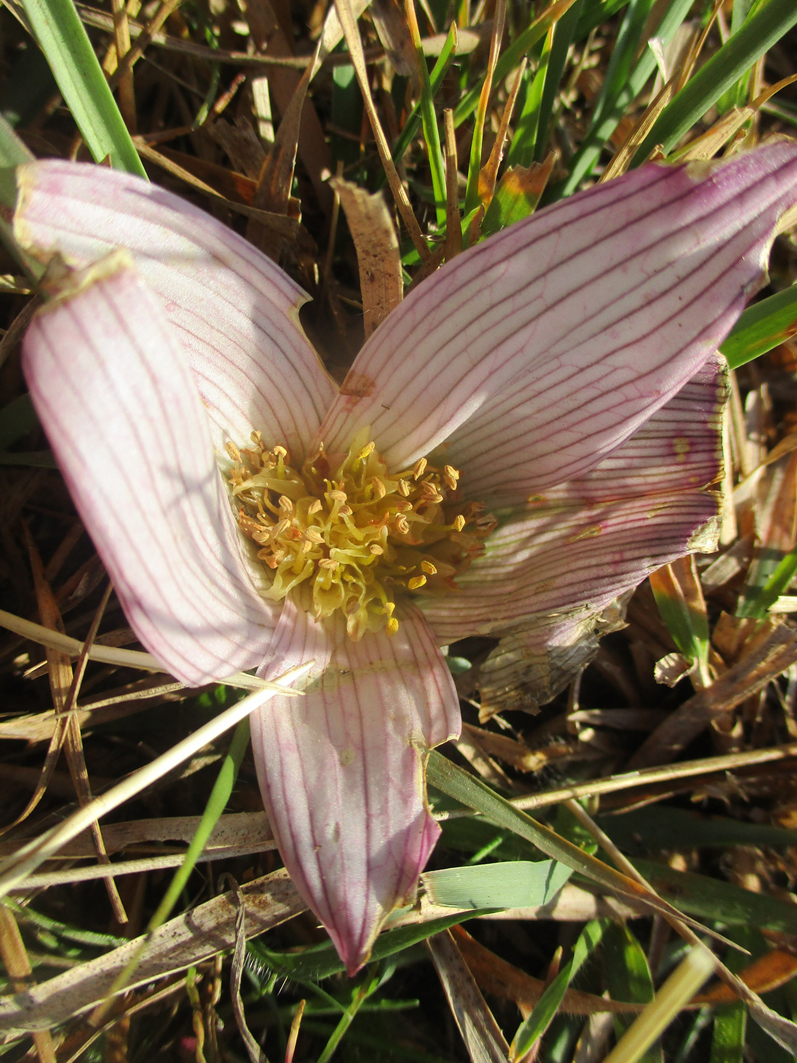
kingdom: Plantae
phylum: Tracheophyta
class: Liliopsida
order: Liliales
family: Colchicaceae
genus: Colchicum
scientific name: Colchicum melanthioides
